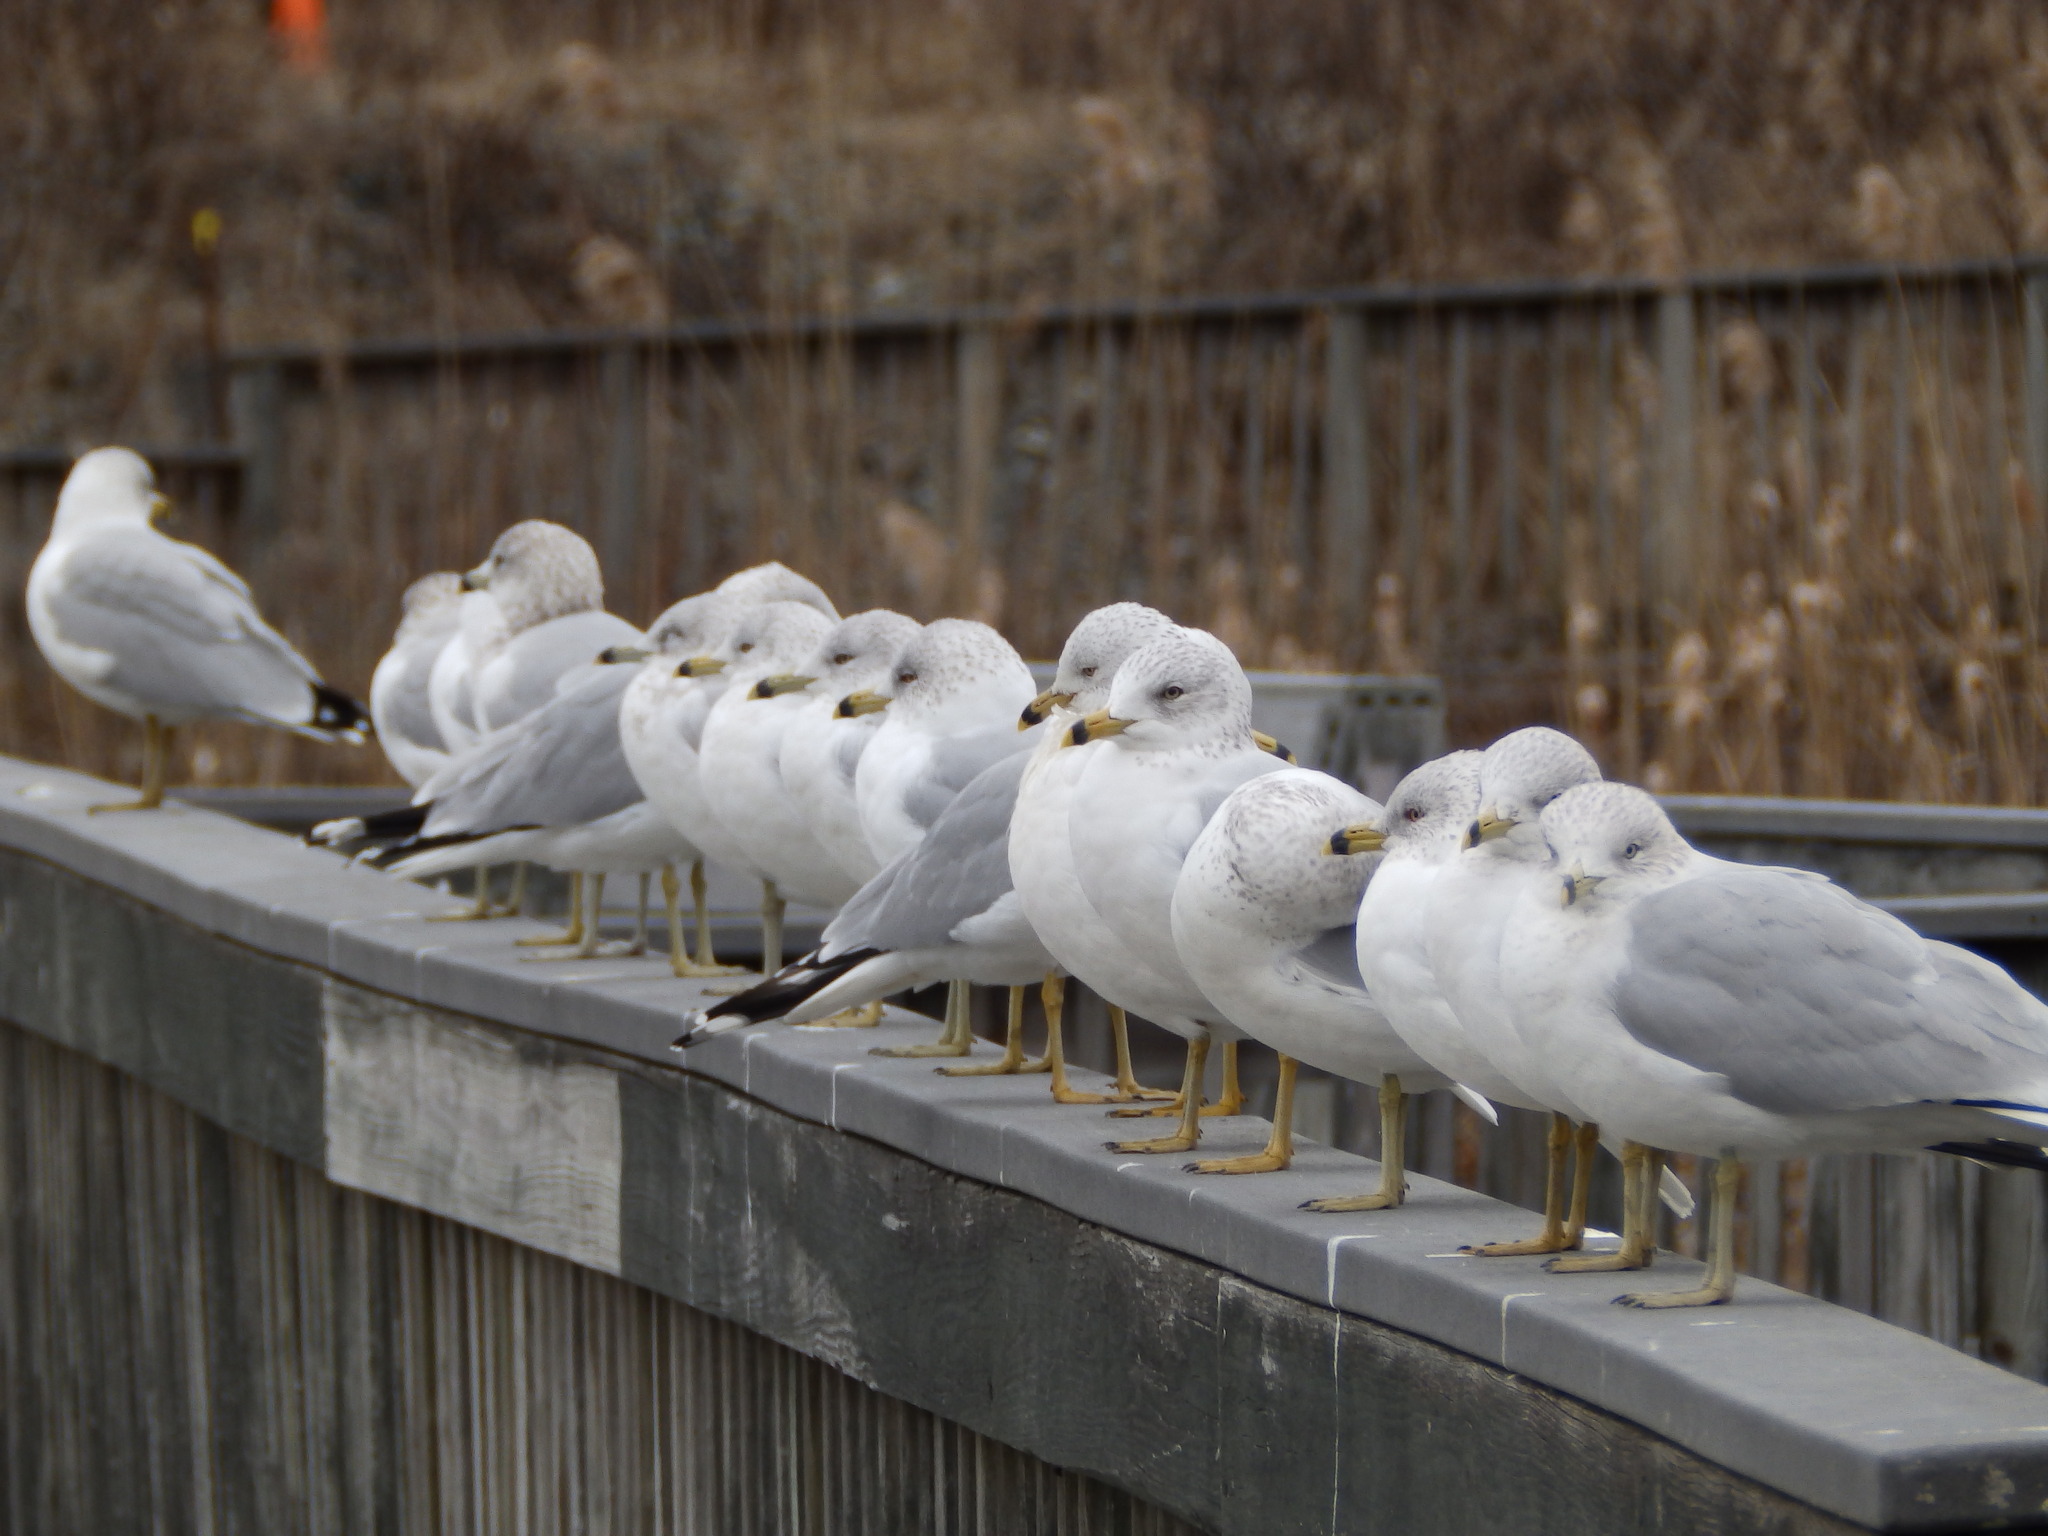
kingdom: Animalia
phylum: Chordata
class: Aves
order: Charadriiformes
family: Laridae
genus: Larus
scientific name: Larus delawarensis
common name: Ring-billed gull
